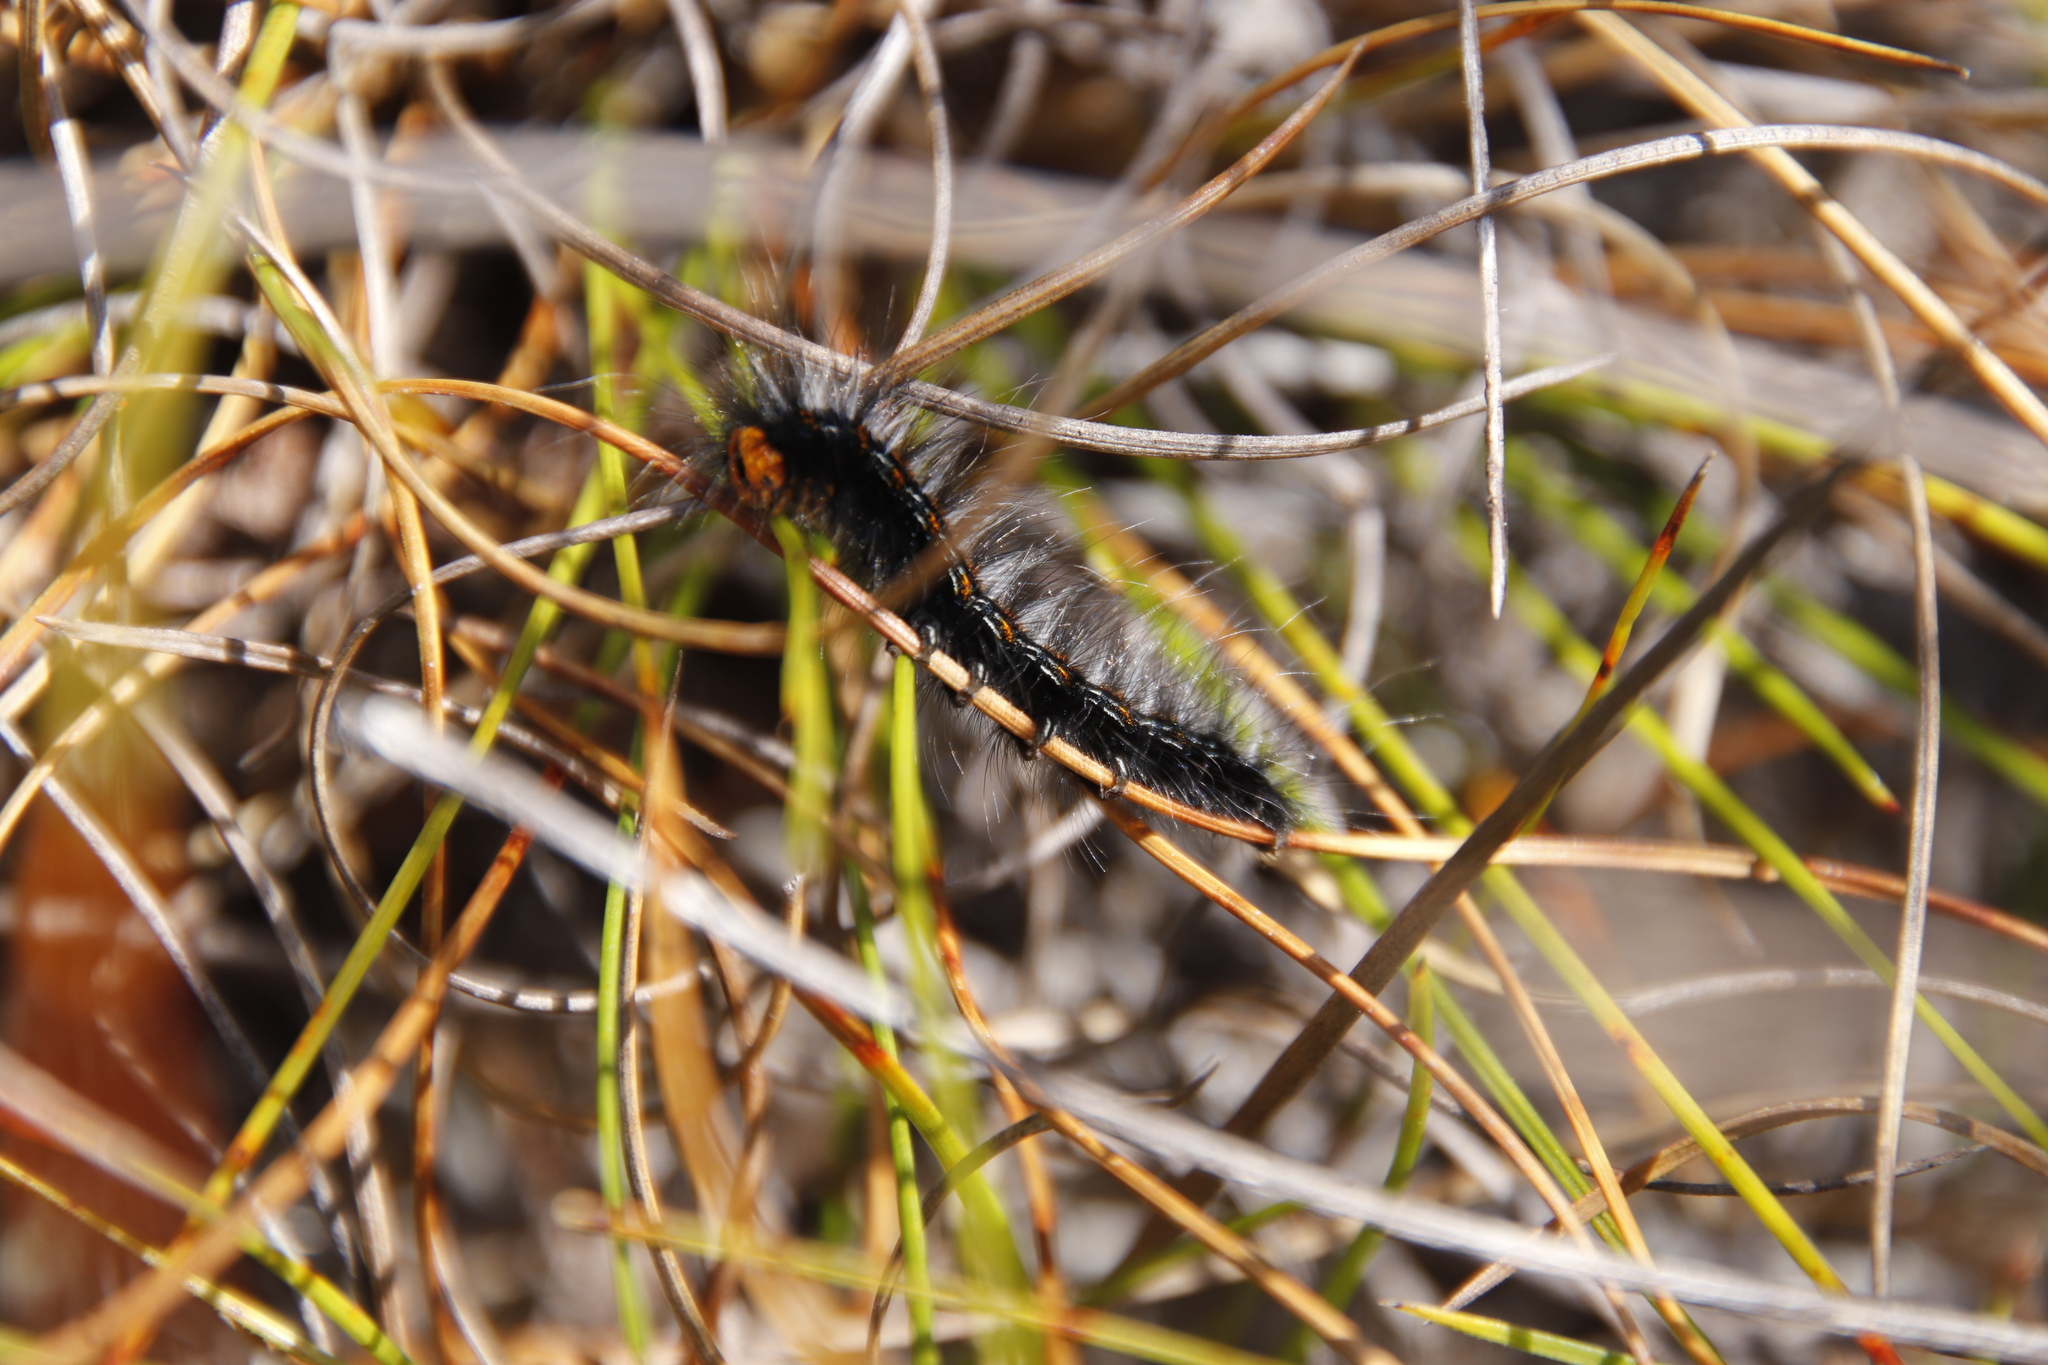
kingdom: Animalia
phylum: Arthropoda
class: Insecta
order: Lepidoptera
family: Lasiocampidae
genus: Mesocelis
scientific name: Mesocelis monticola
